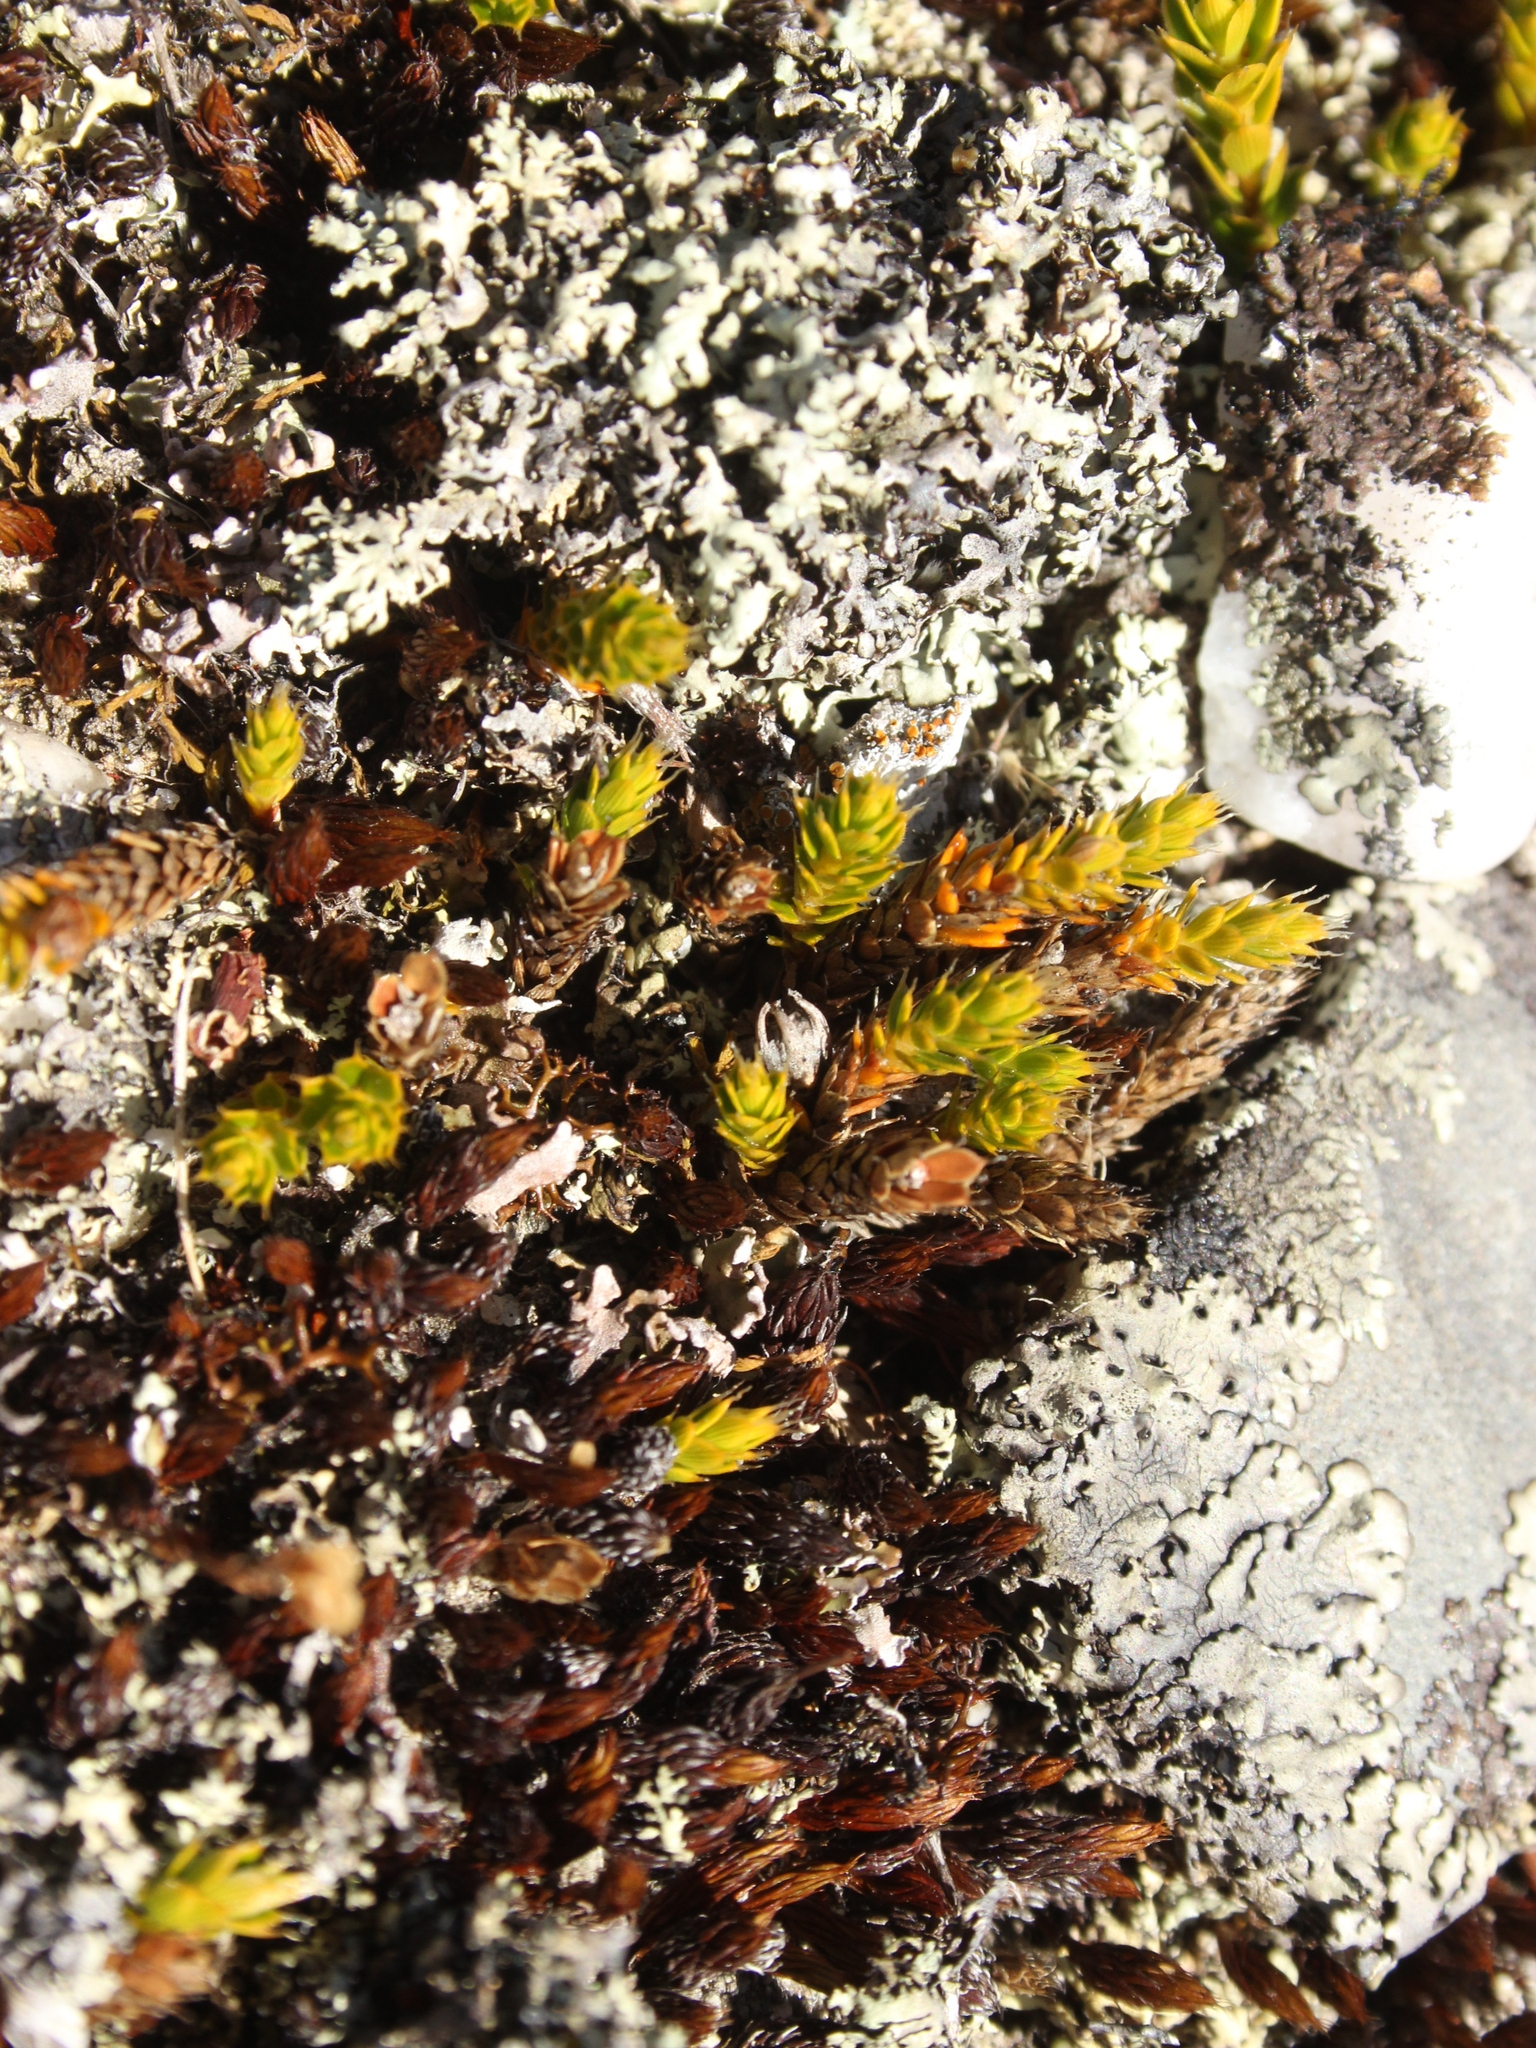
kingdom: Plantae
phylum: Tracheophyta
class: Magnoliopsida
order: Ericales
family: Ericaceae
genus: Styphelia
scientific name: Styphelia nana
